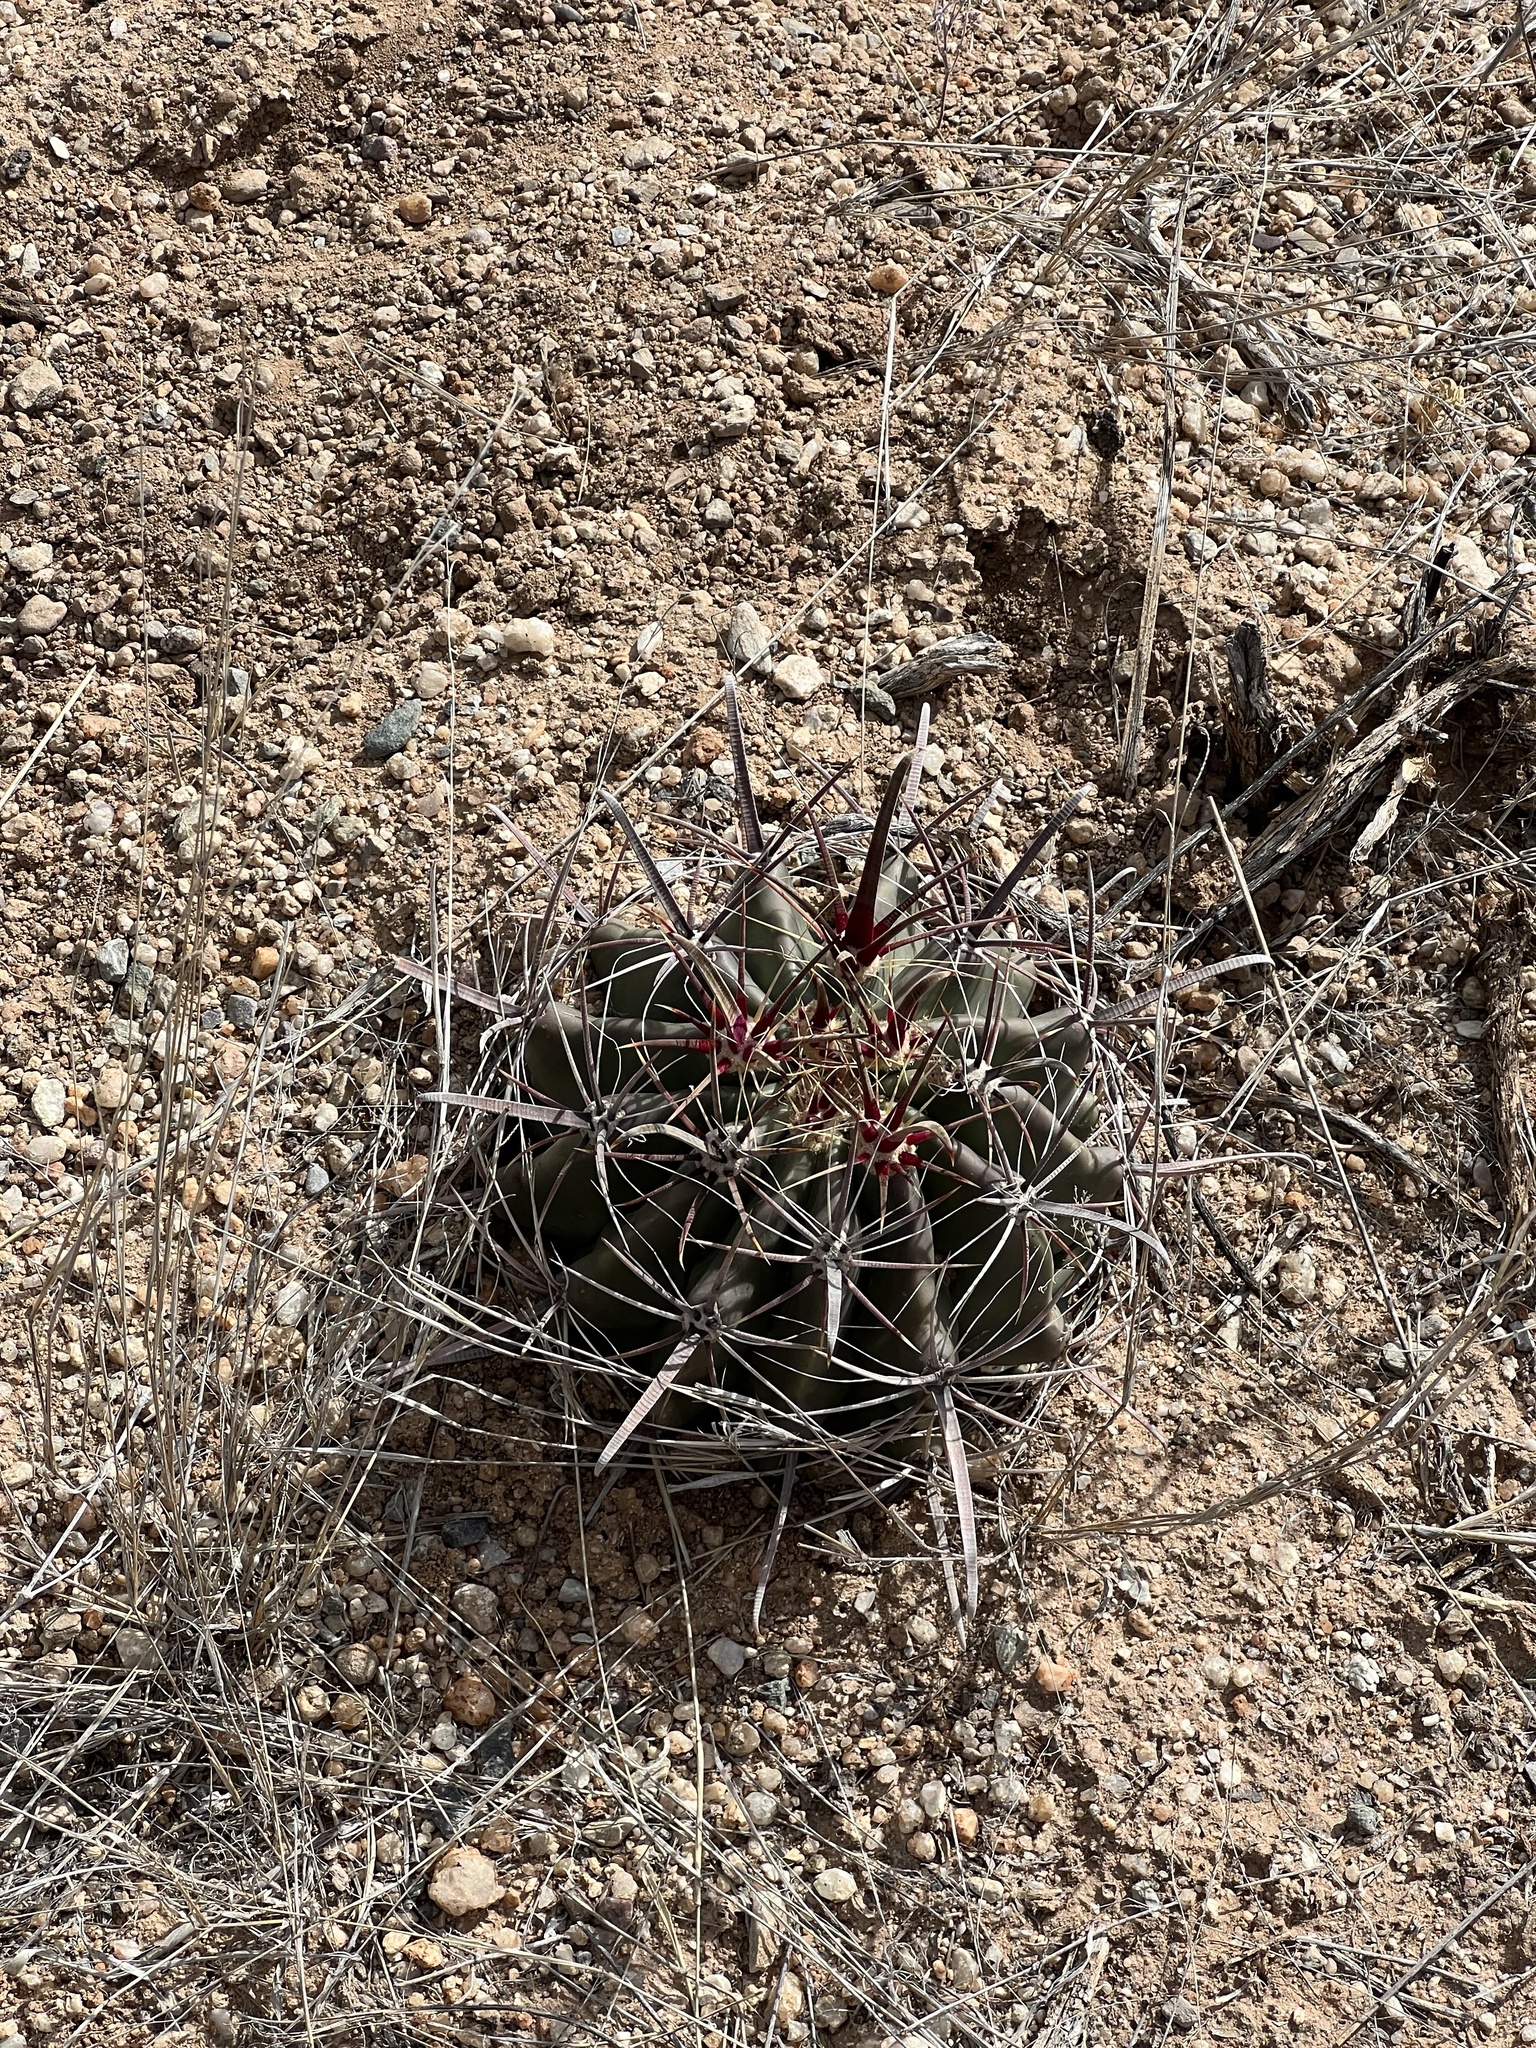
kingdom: Plantae
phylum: Tracheophyta
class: Magnoliopsida
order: Caryophyllales
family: Cactaceae
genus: Ferocactus
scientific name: Ferocactus wislizeni
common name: Candy barrel cactus
